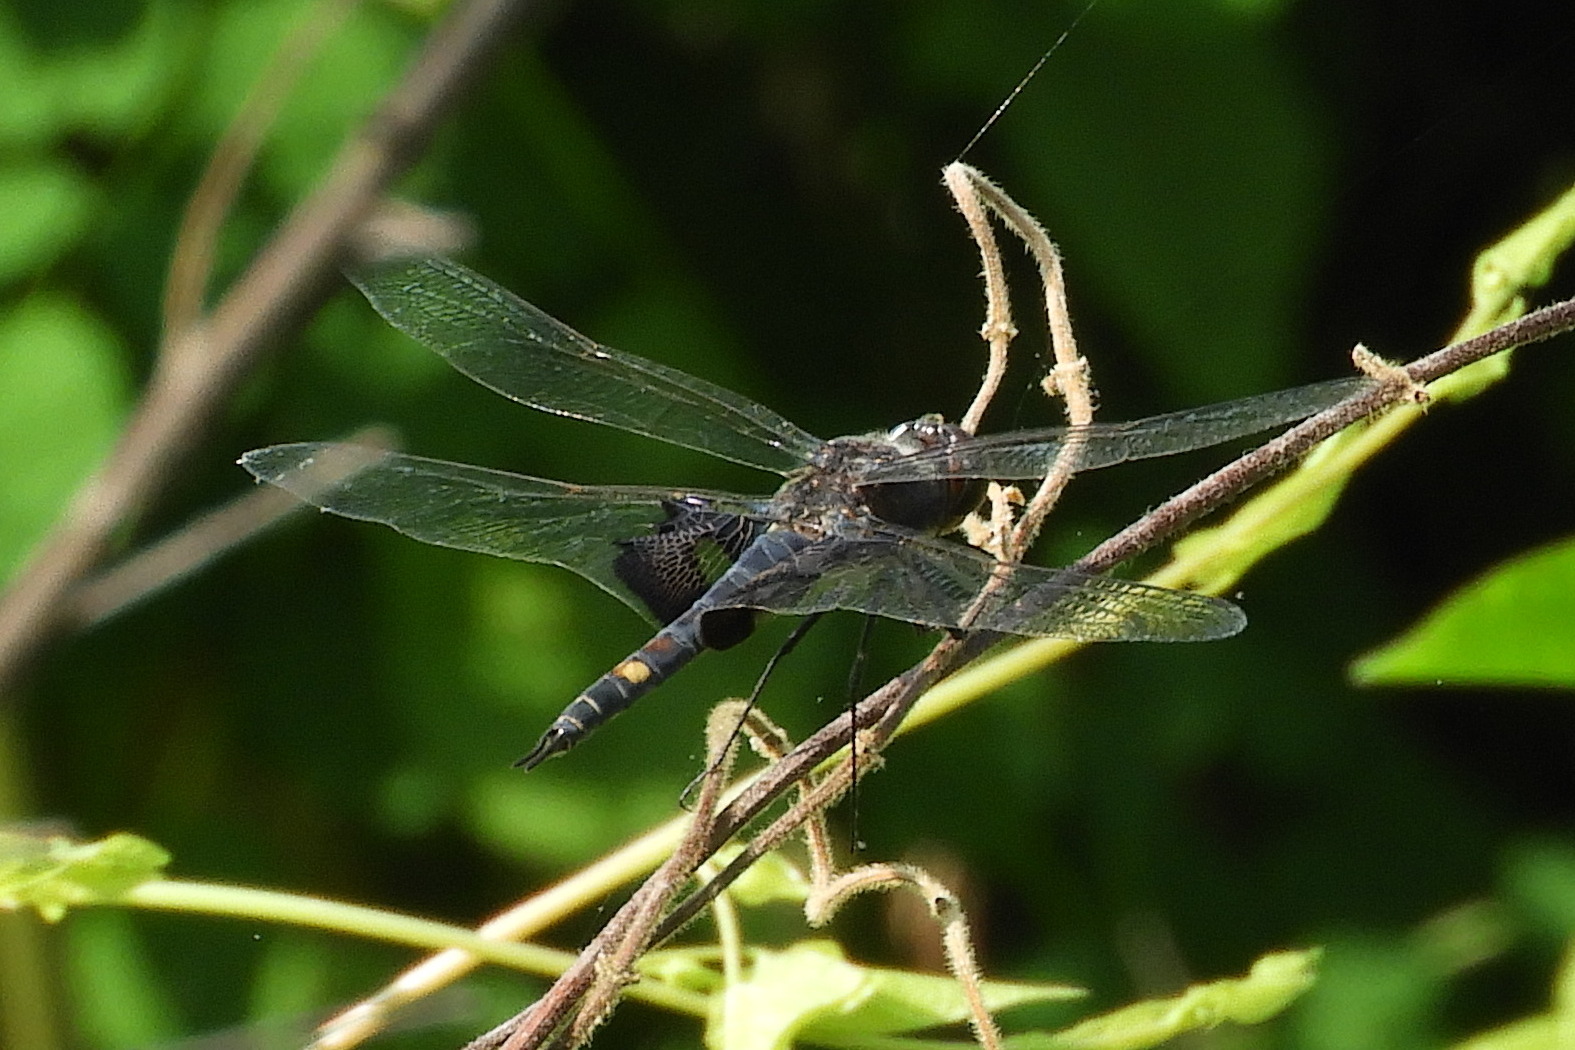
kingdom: Animalia
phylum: Arthropoda
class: Insecta
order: Odonata
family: Libellulidae
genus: Tramea
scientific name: Tramea lacerata
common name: Black saddlebags
